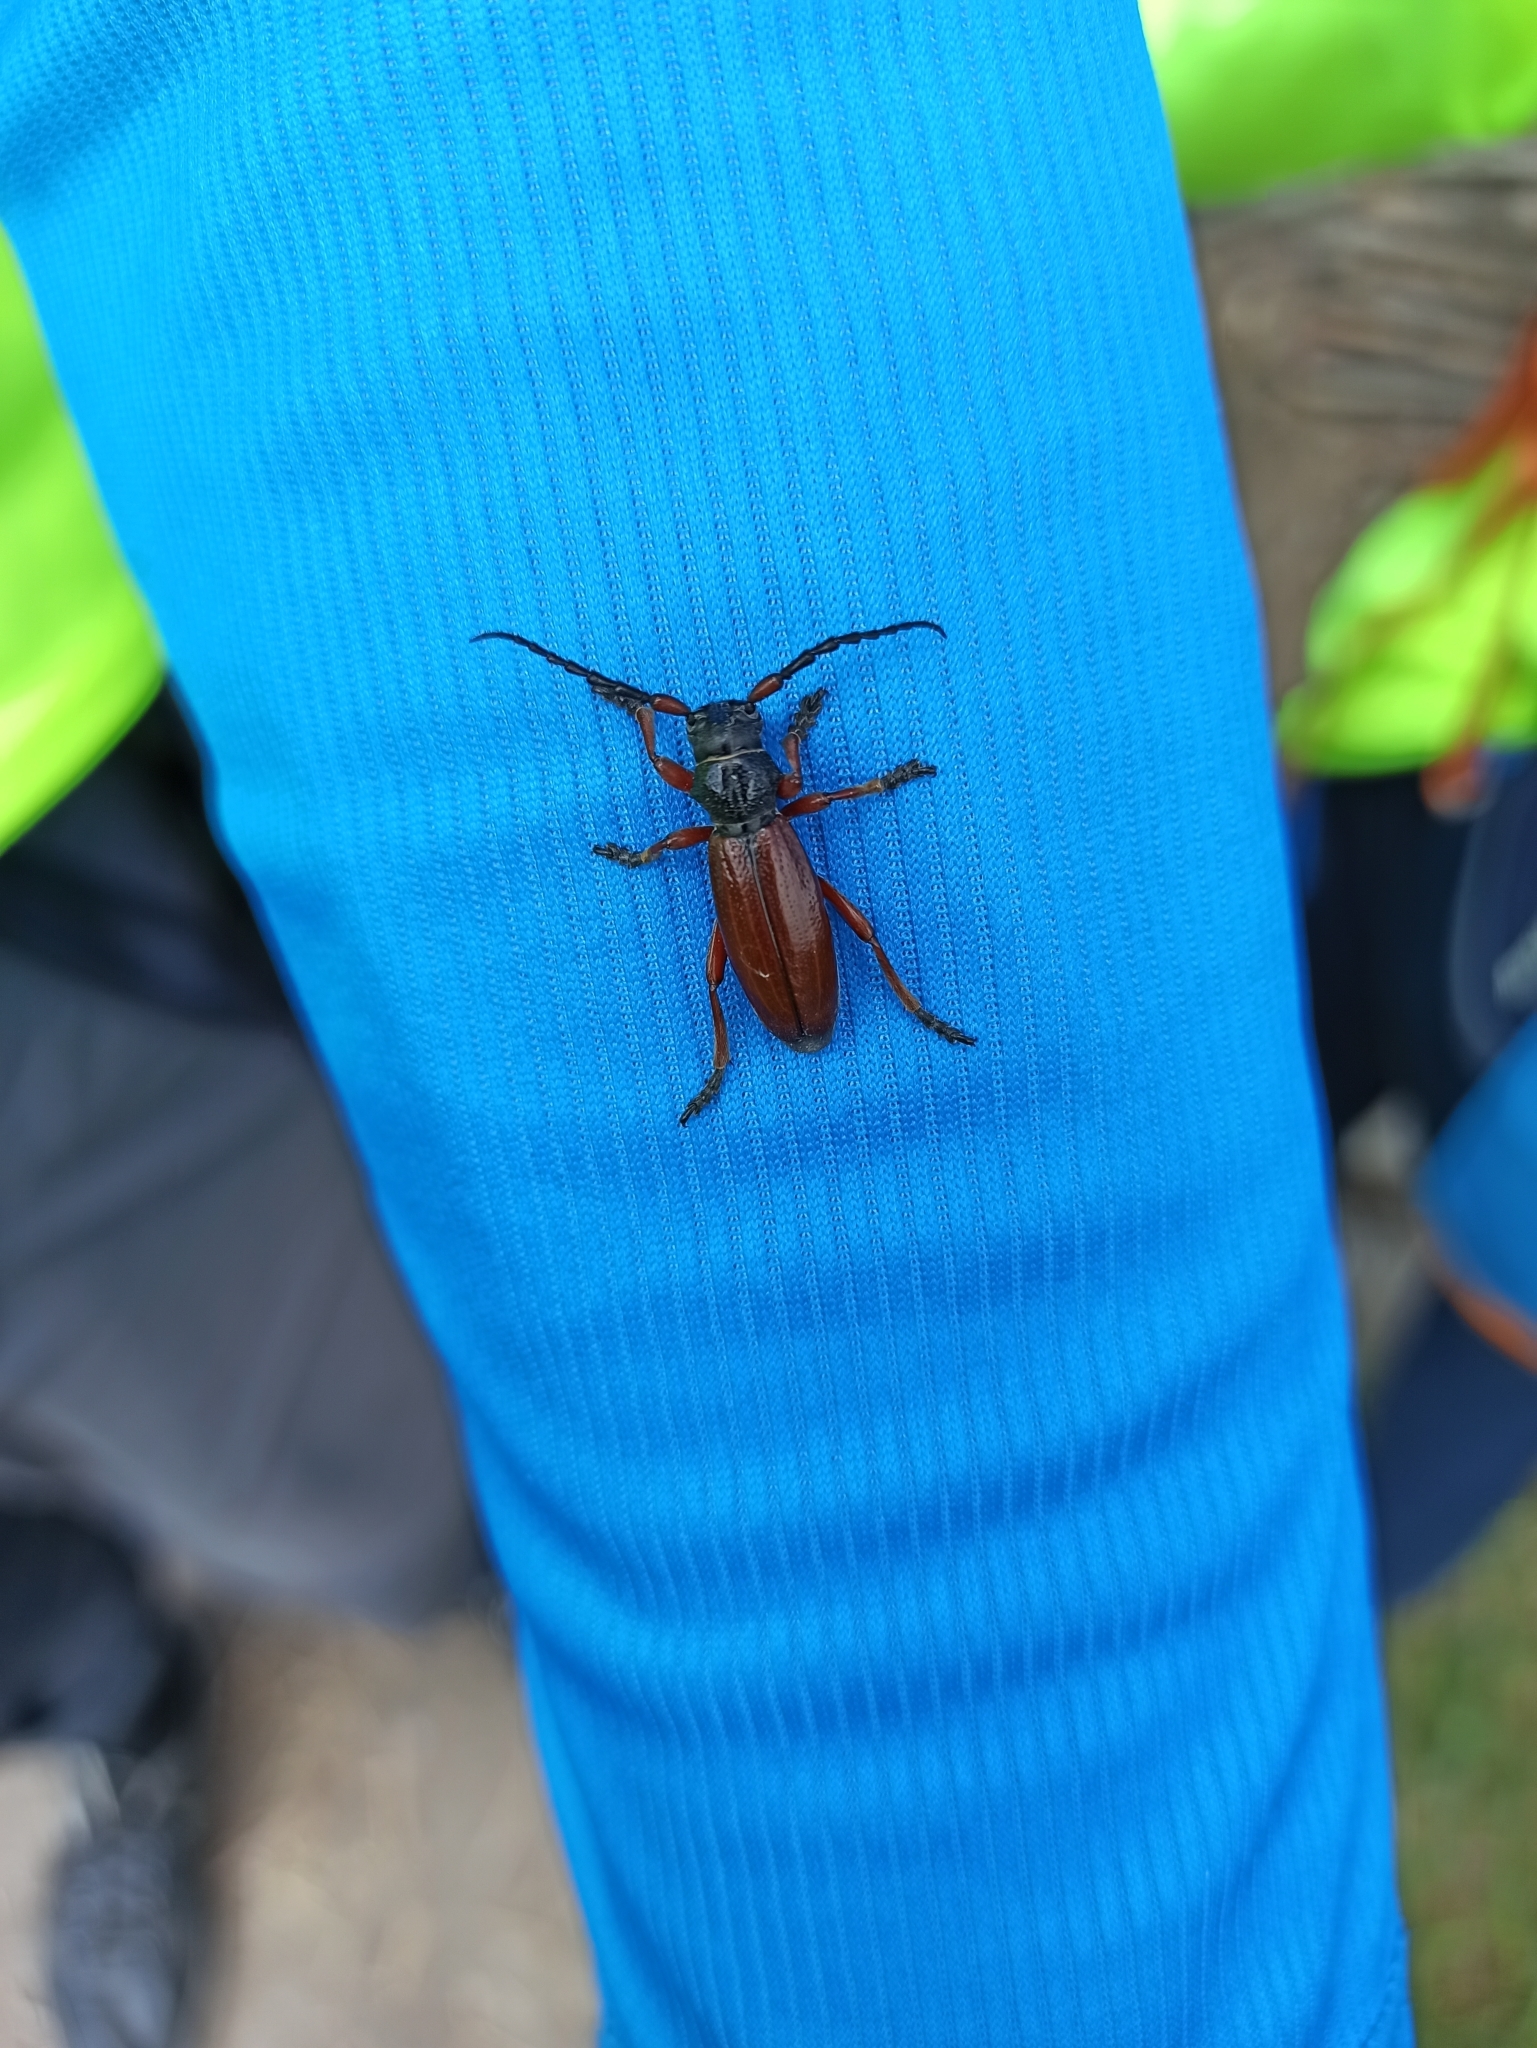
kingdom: Animalia
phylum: Arthropoda
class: Insecta
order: Coleoptera
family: Cerambycidae
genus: Dorcadion
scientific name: Dorcadion fulvum
